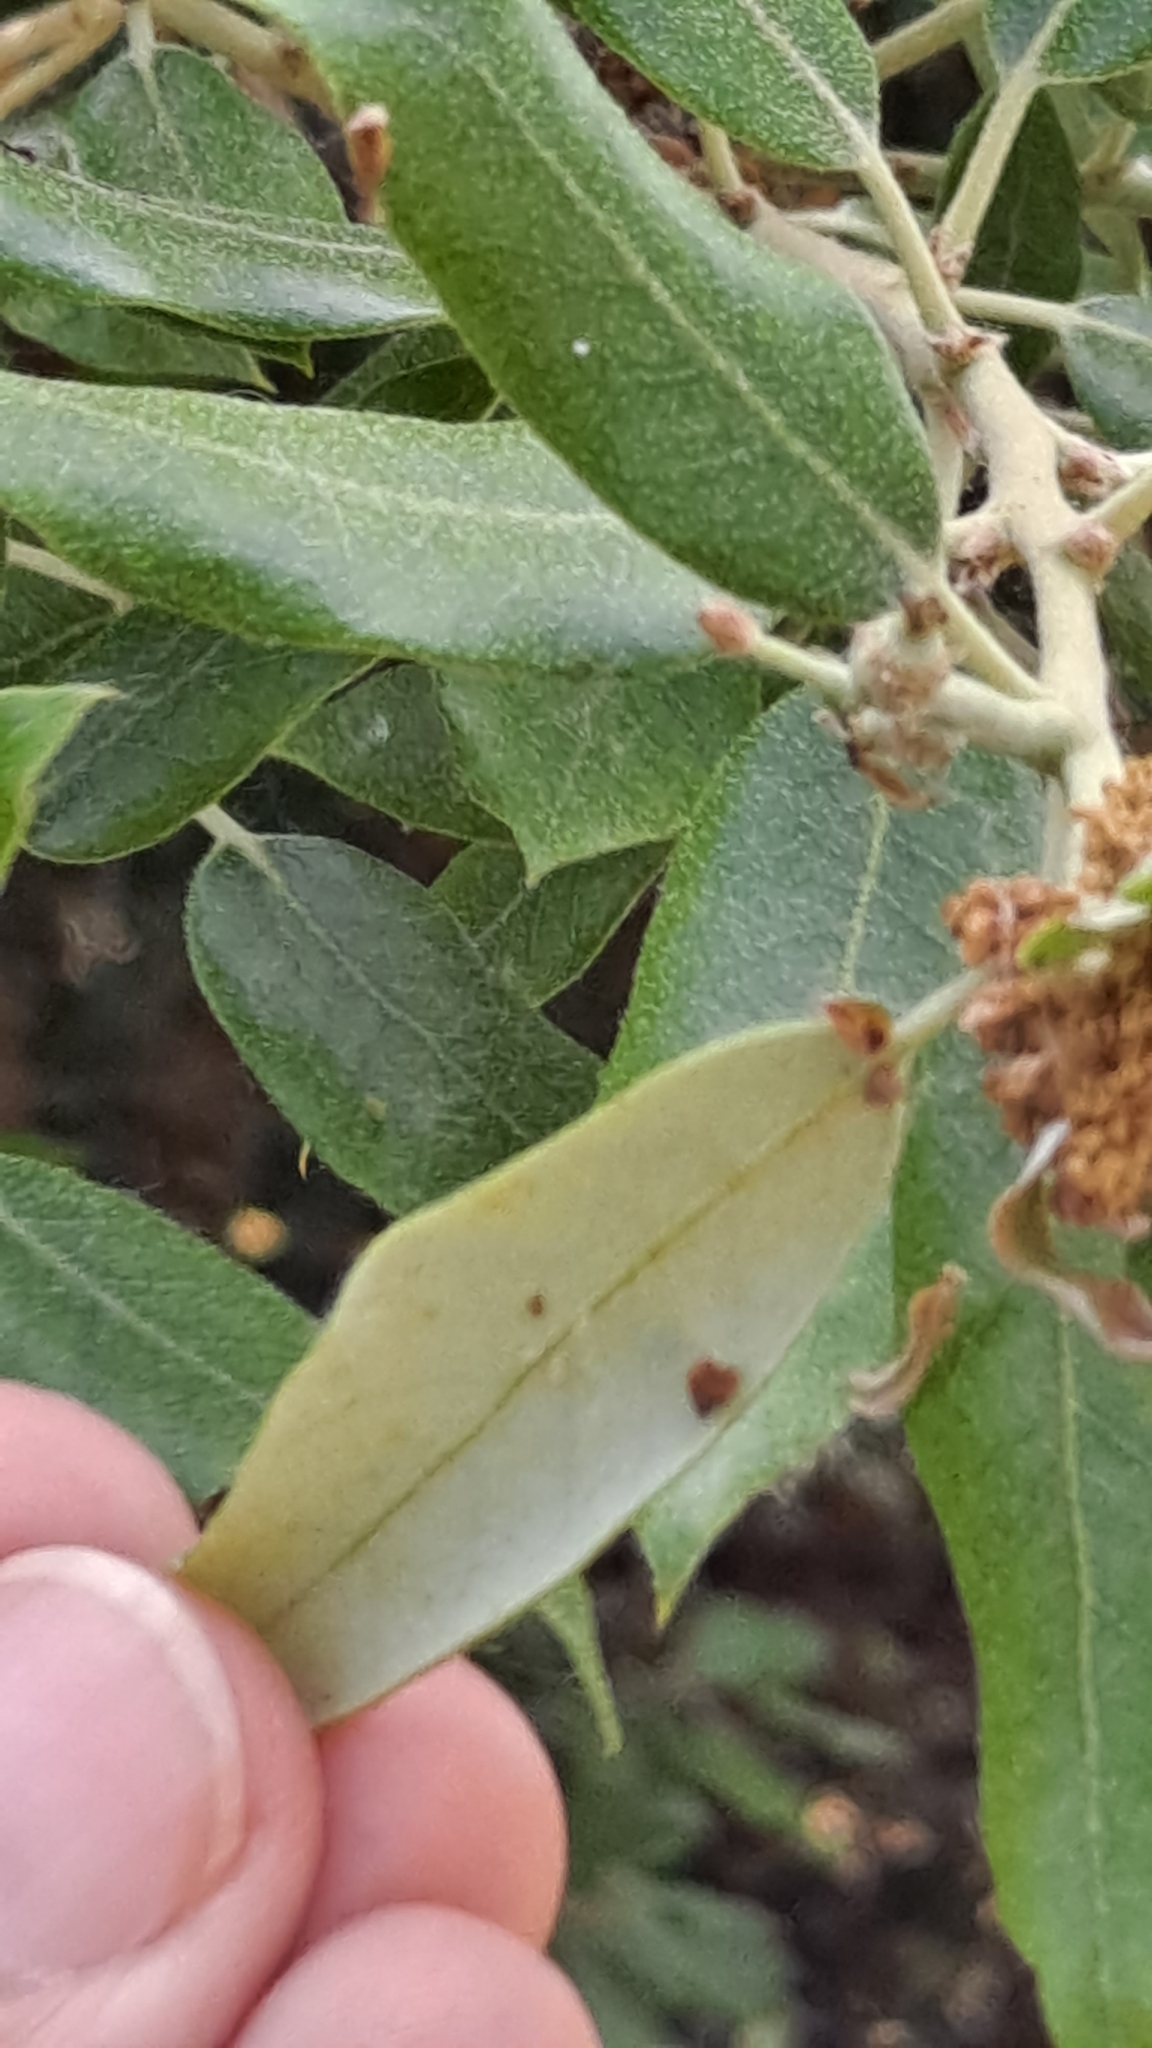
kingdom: Plantae
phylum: Tracheophyta
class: Magnoliopsida
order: Fagales
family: Fagaceae
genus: Quercus
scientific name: Quercus ilex
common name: Evergreen oak
